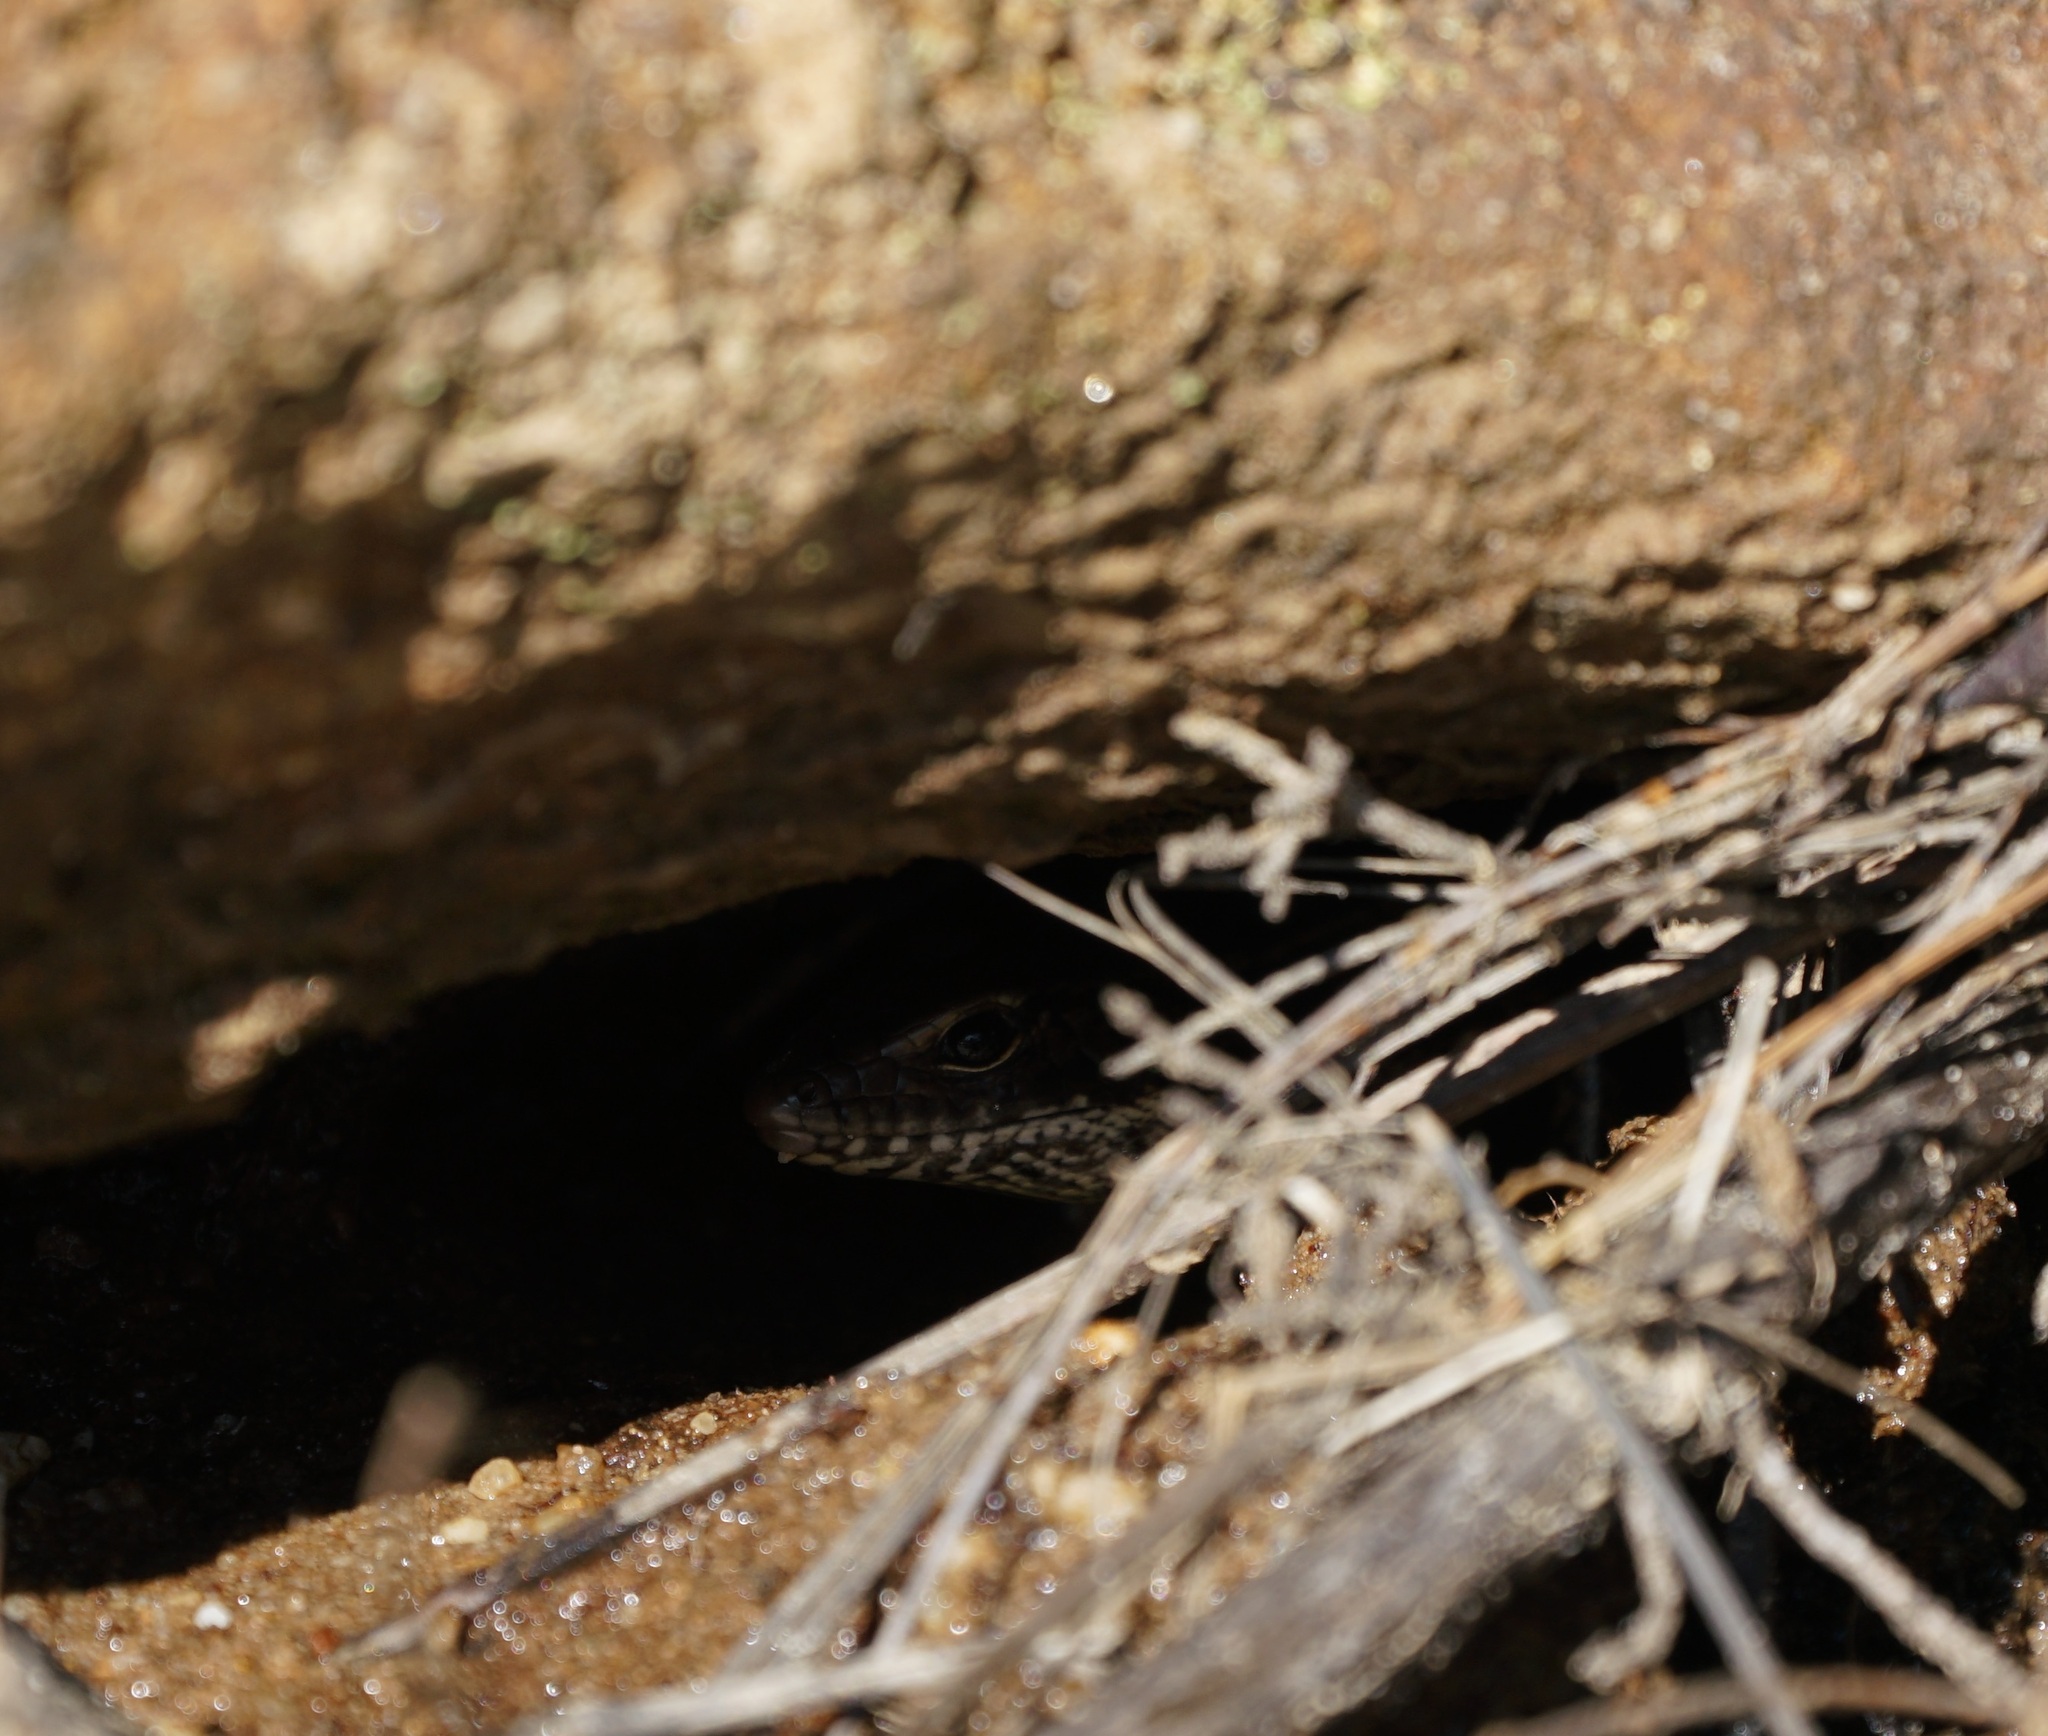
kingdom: Animalia
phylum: Chordata
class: Squamata
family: Scincidae
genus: Eulamprus
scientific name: Eulamprus quoyii
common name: Eastern water skink
